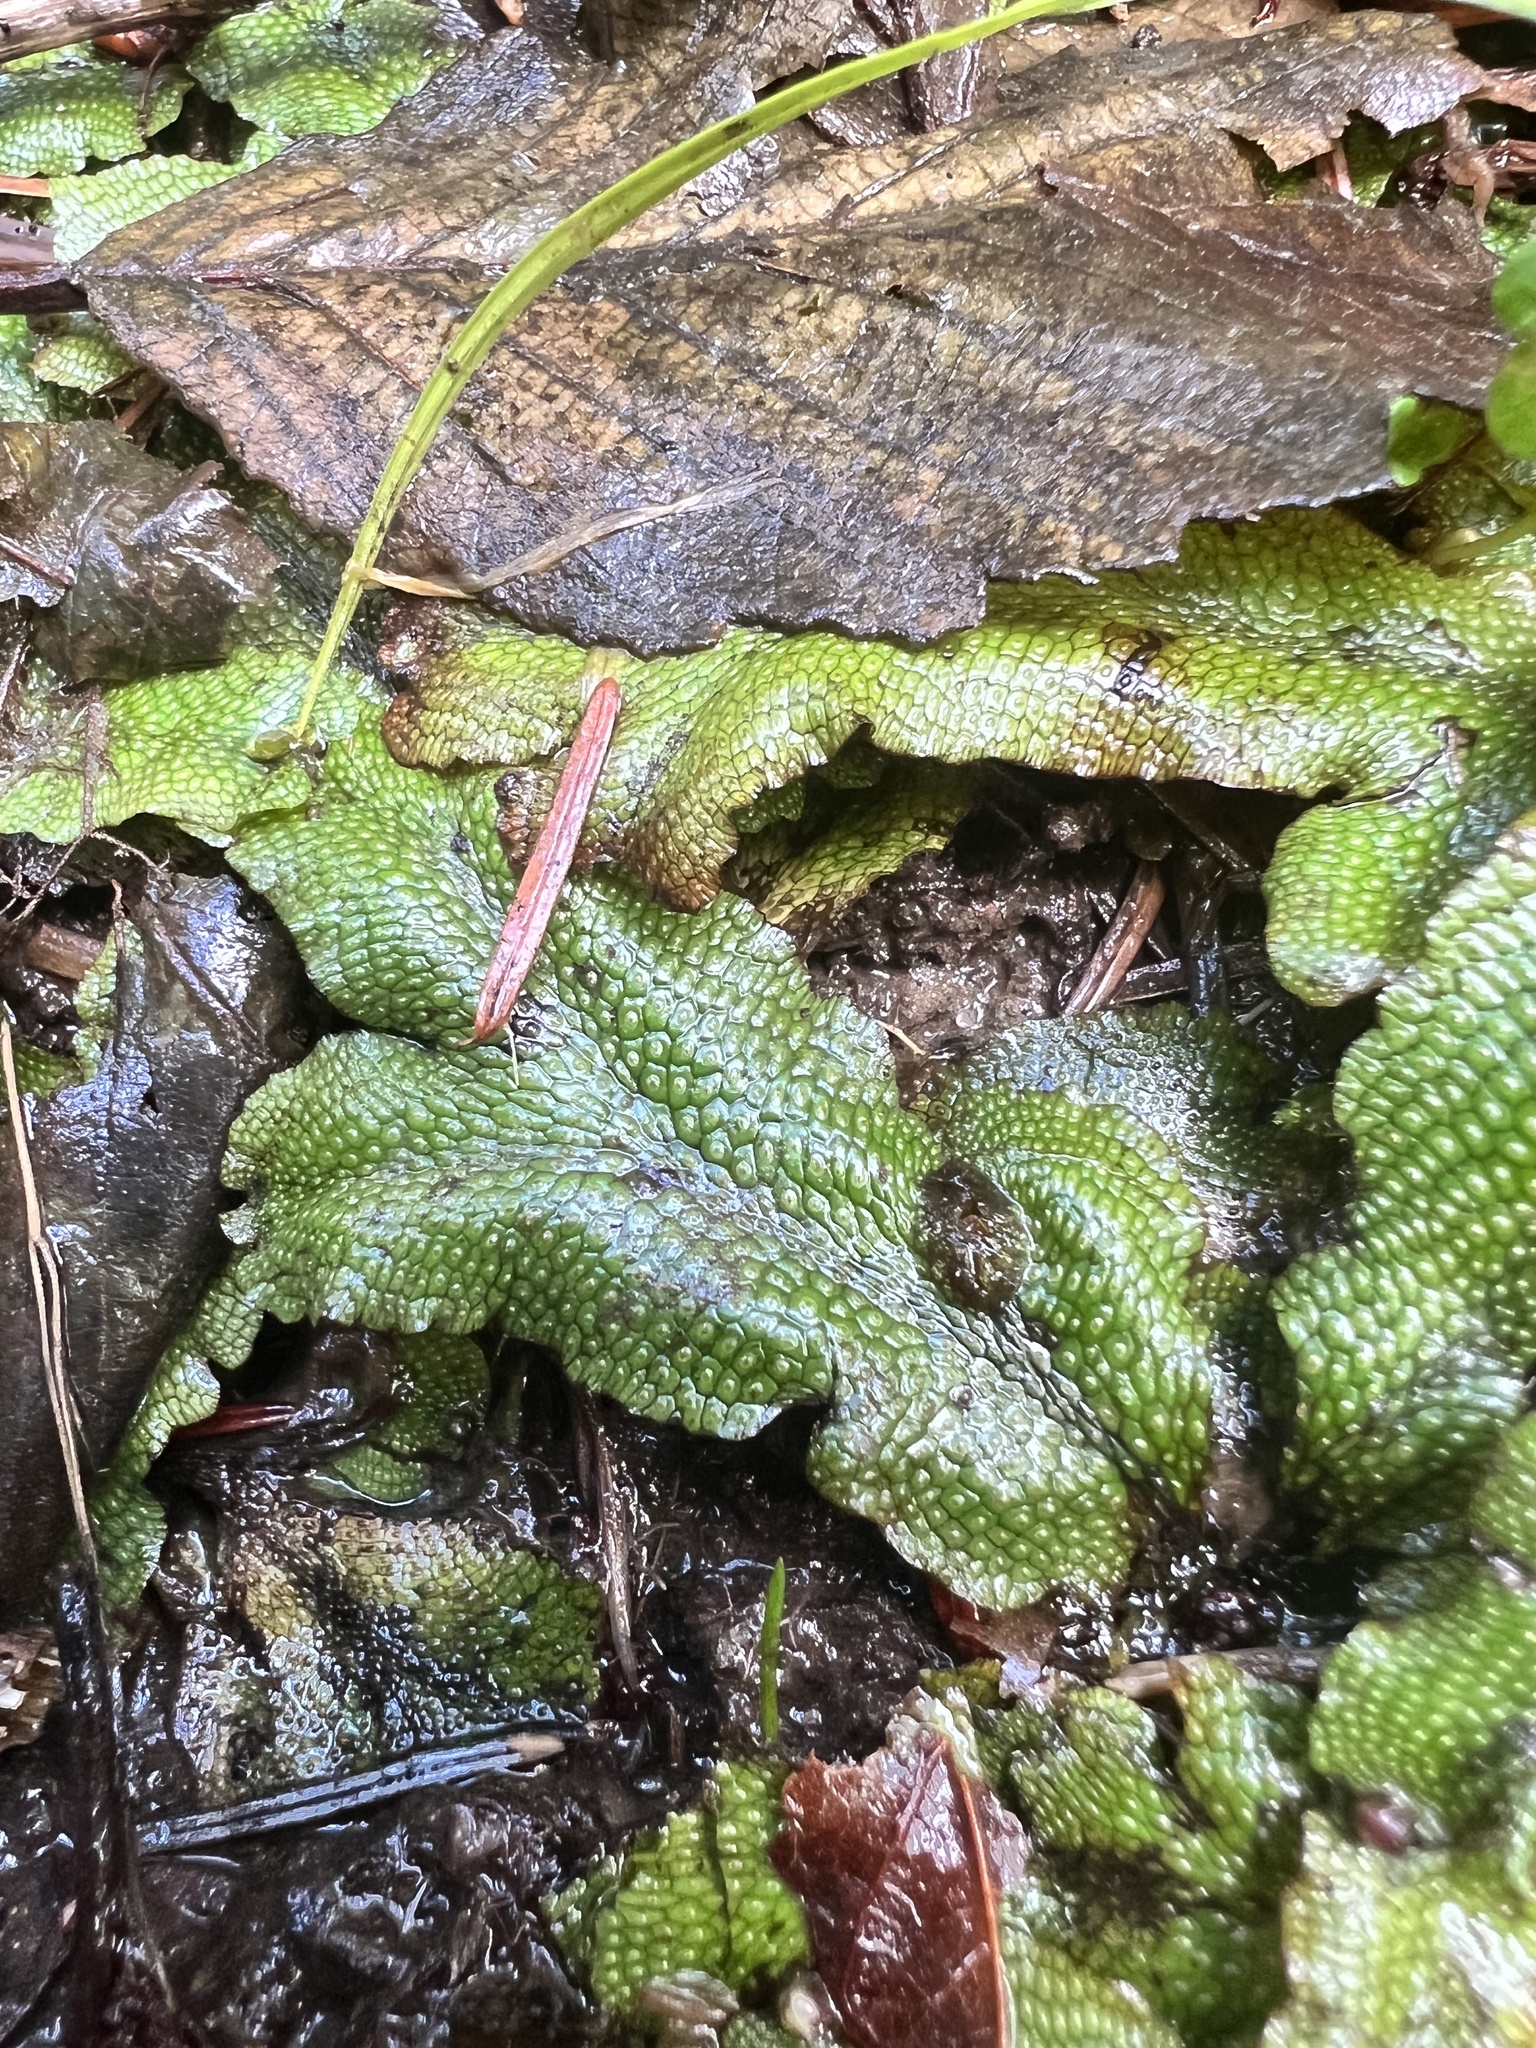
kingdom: Plantae
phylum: Marchantiophyta
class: Marchantiopsida
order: Marchantiales
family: Conocephalaceae
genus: Conocephalum
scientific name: Conocephalum salebrosum
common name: Cat-tongue liverwort
